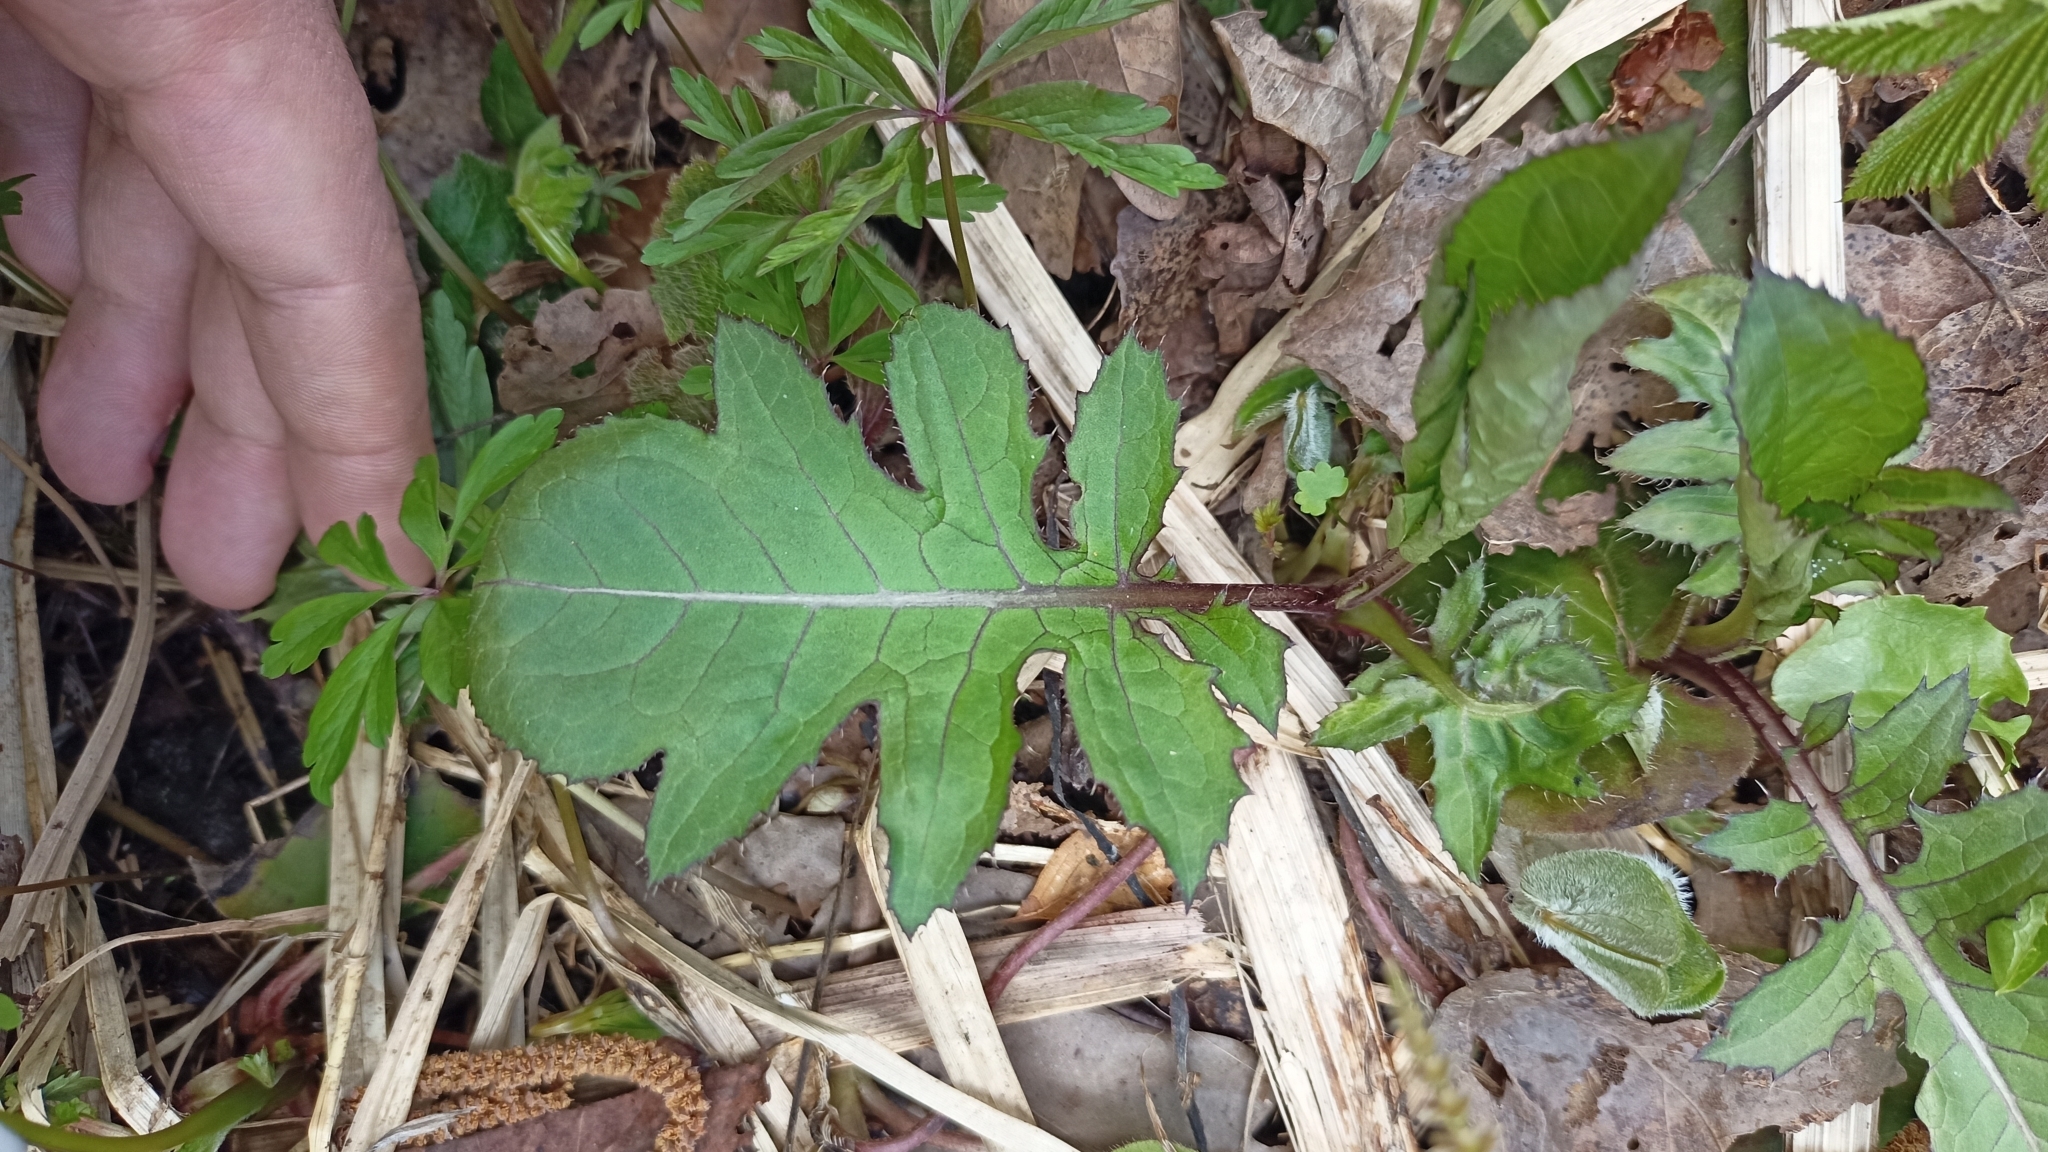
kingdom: Plantae
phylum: Tracheophyta
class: Magnoliopsida
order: Asterales
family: Asteraceae
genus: Cirsium
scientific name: Cirsium oleraceum
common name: Cabbage thistle
